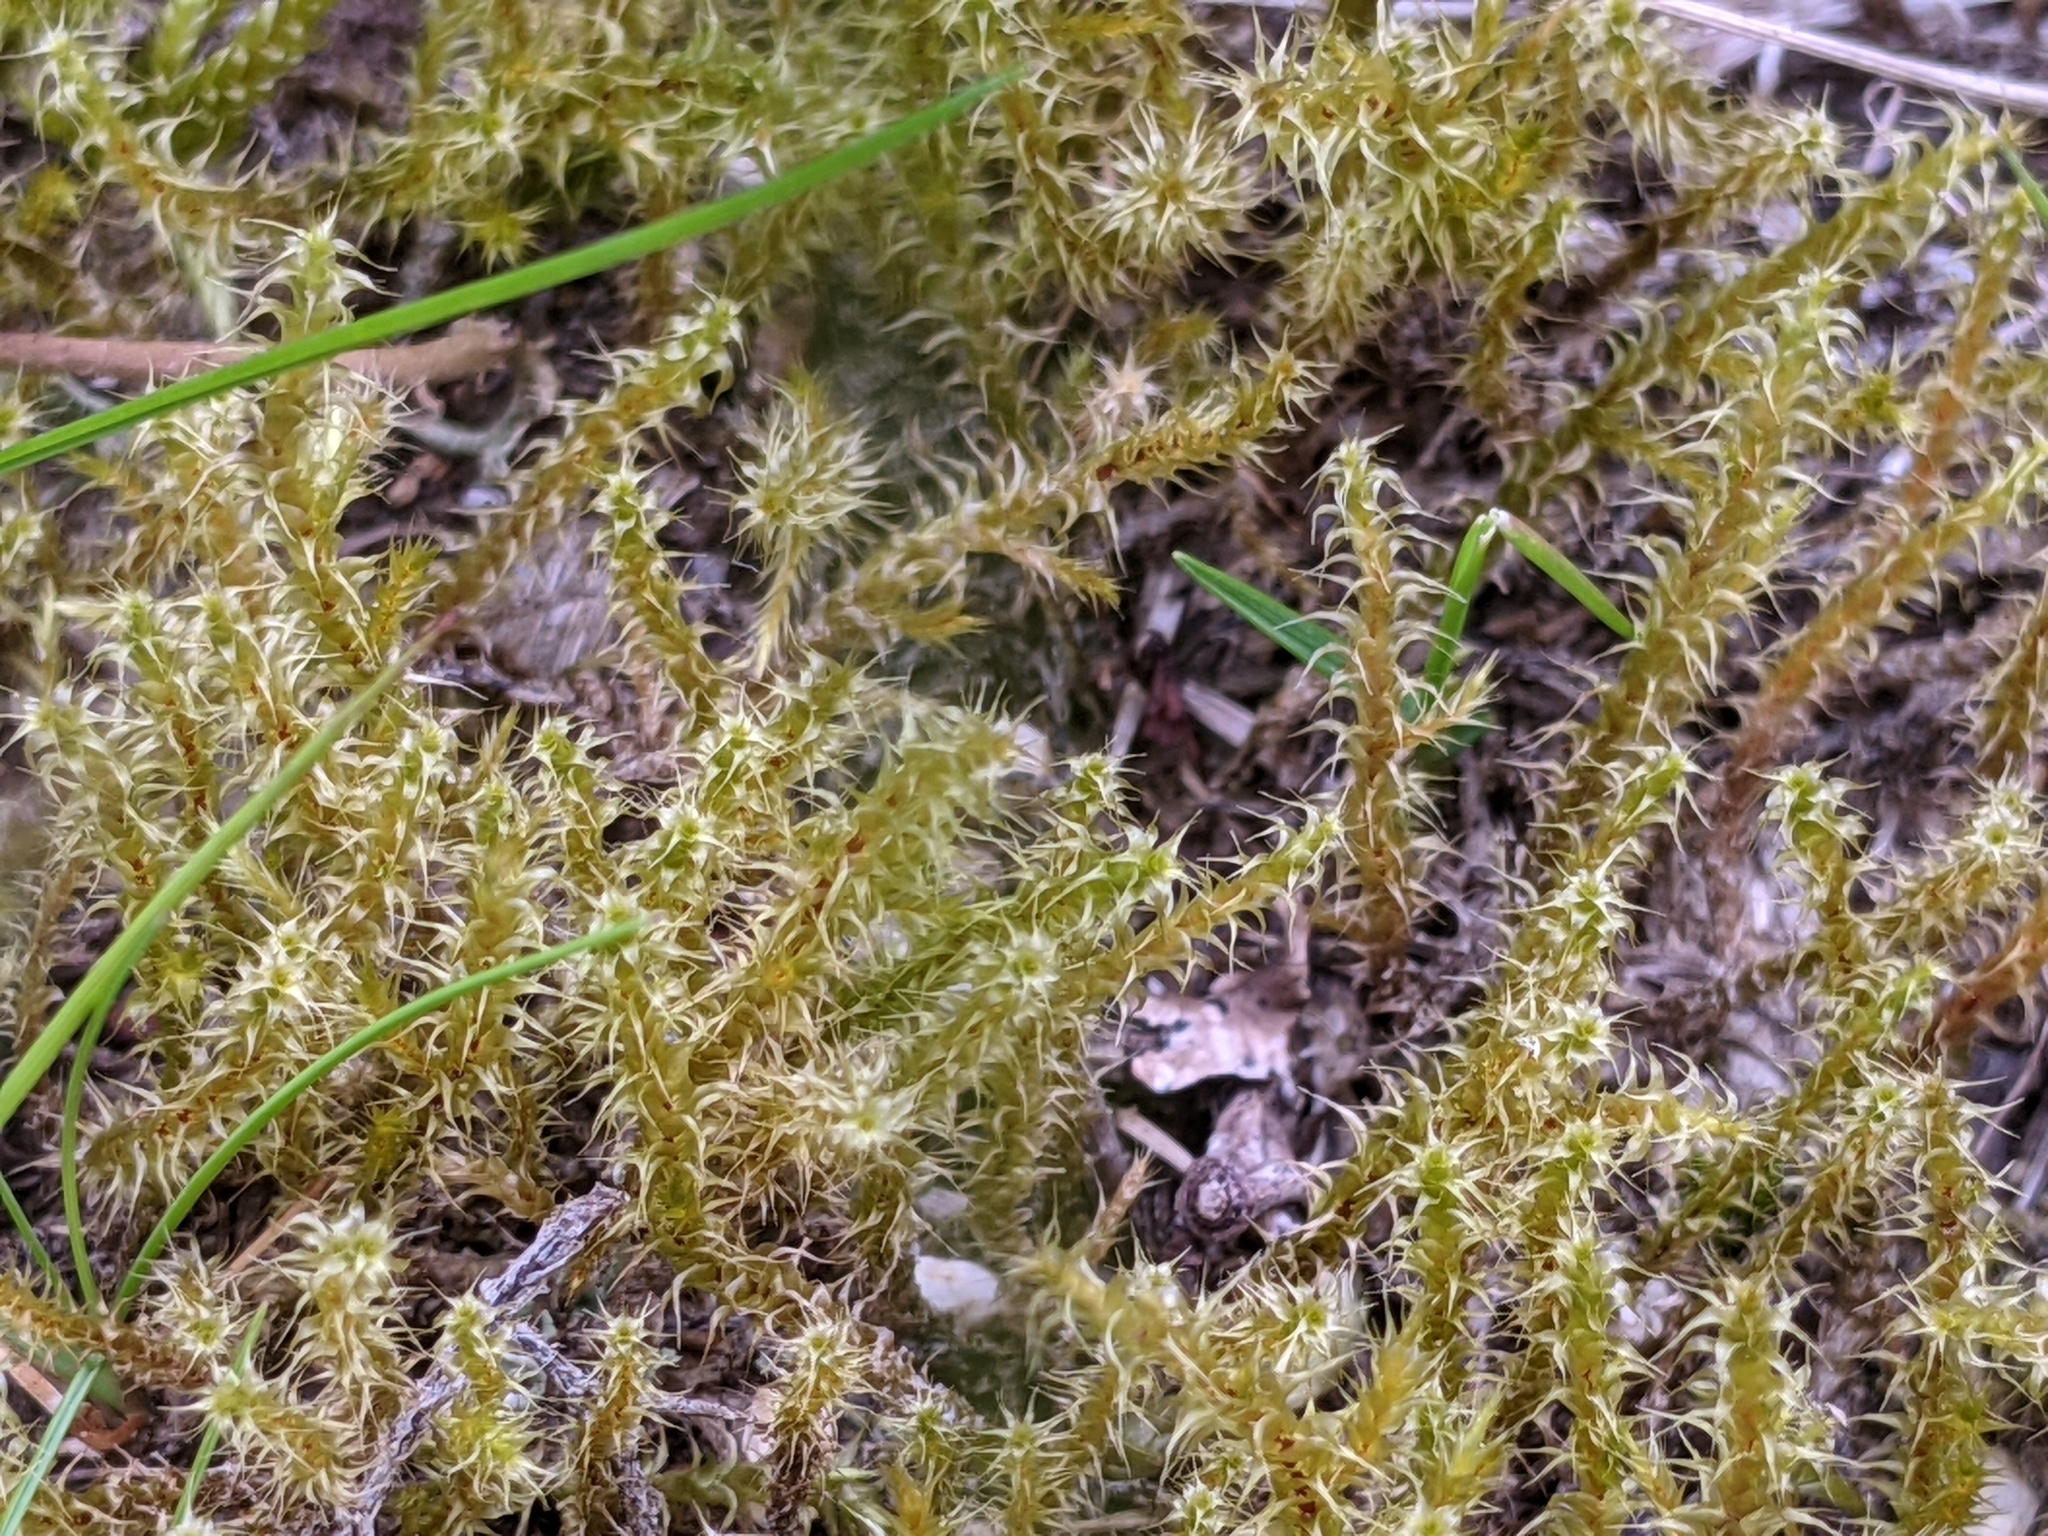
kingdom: Plantae
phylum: Bryophyta
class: Bryopsida
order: Hypnales
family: Hylocomiaceae
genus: Rhytidiadelphus
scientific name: Rhytidiadelphus squarrosus
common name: Springy turf-moss
